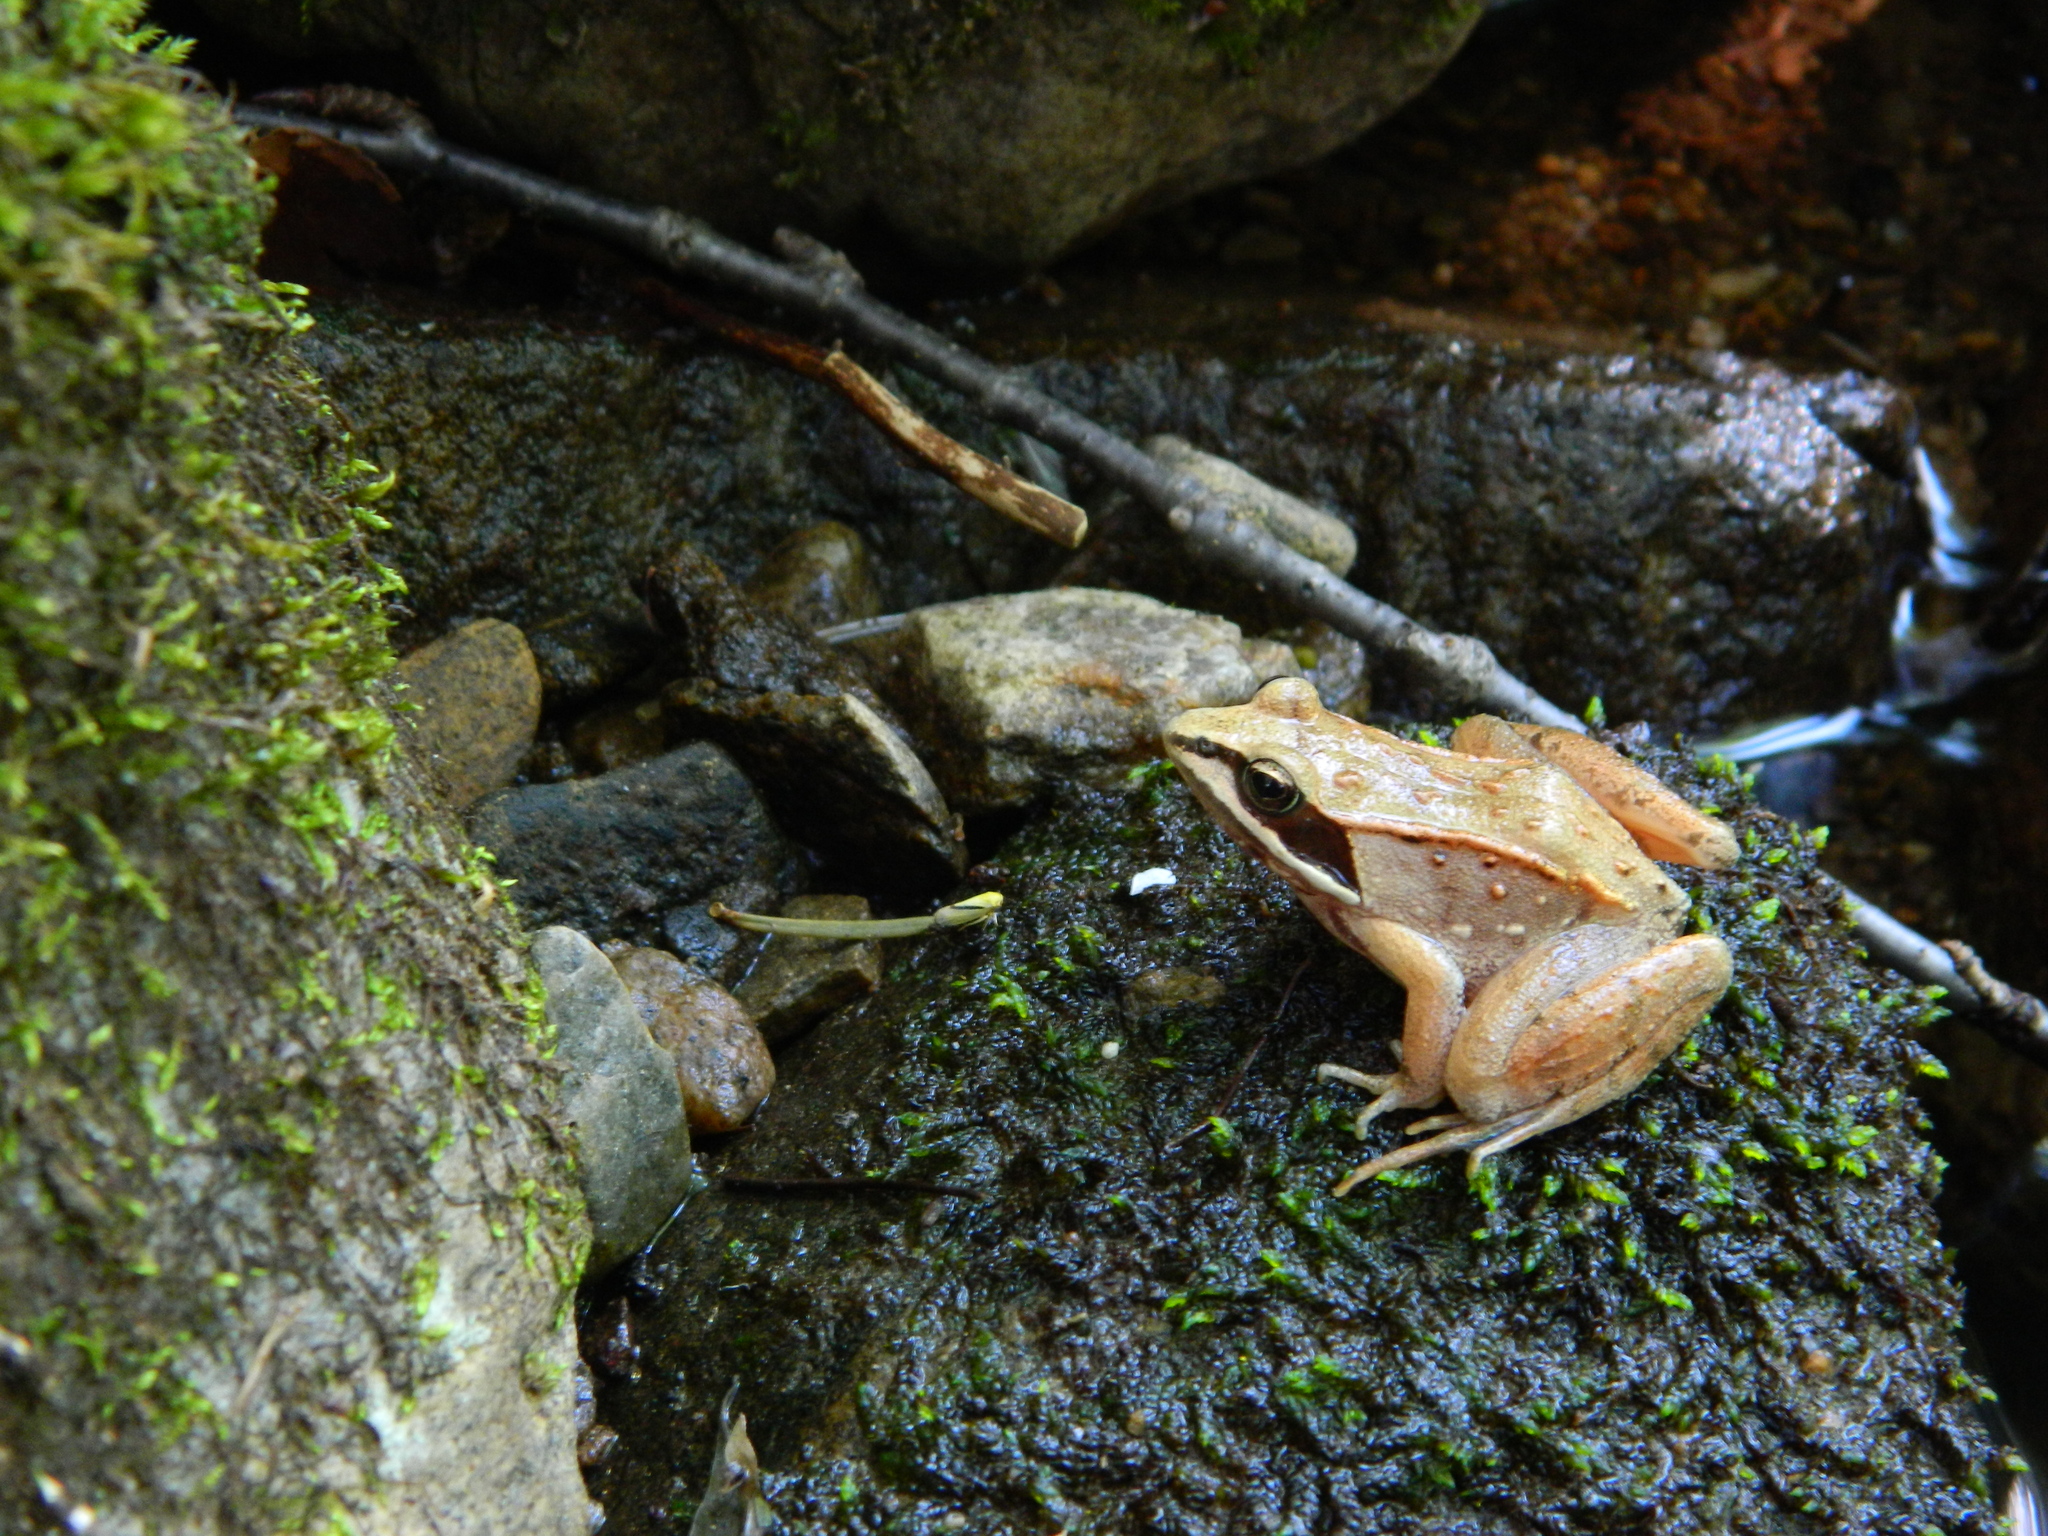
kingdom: Animalia
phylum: Chordata
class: Amphibia
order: Anura
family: Ranidae
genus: Lithobates
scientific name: Lithobates sylvaticus
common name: Wood frog
